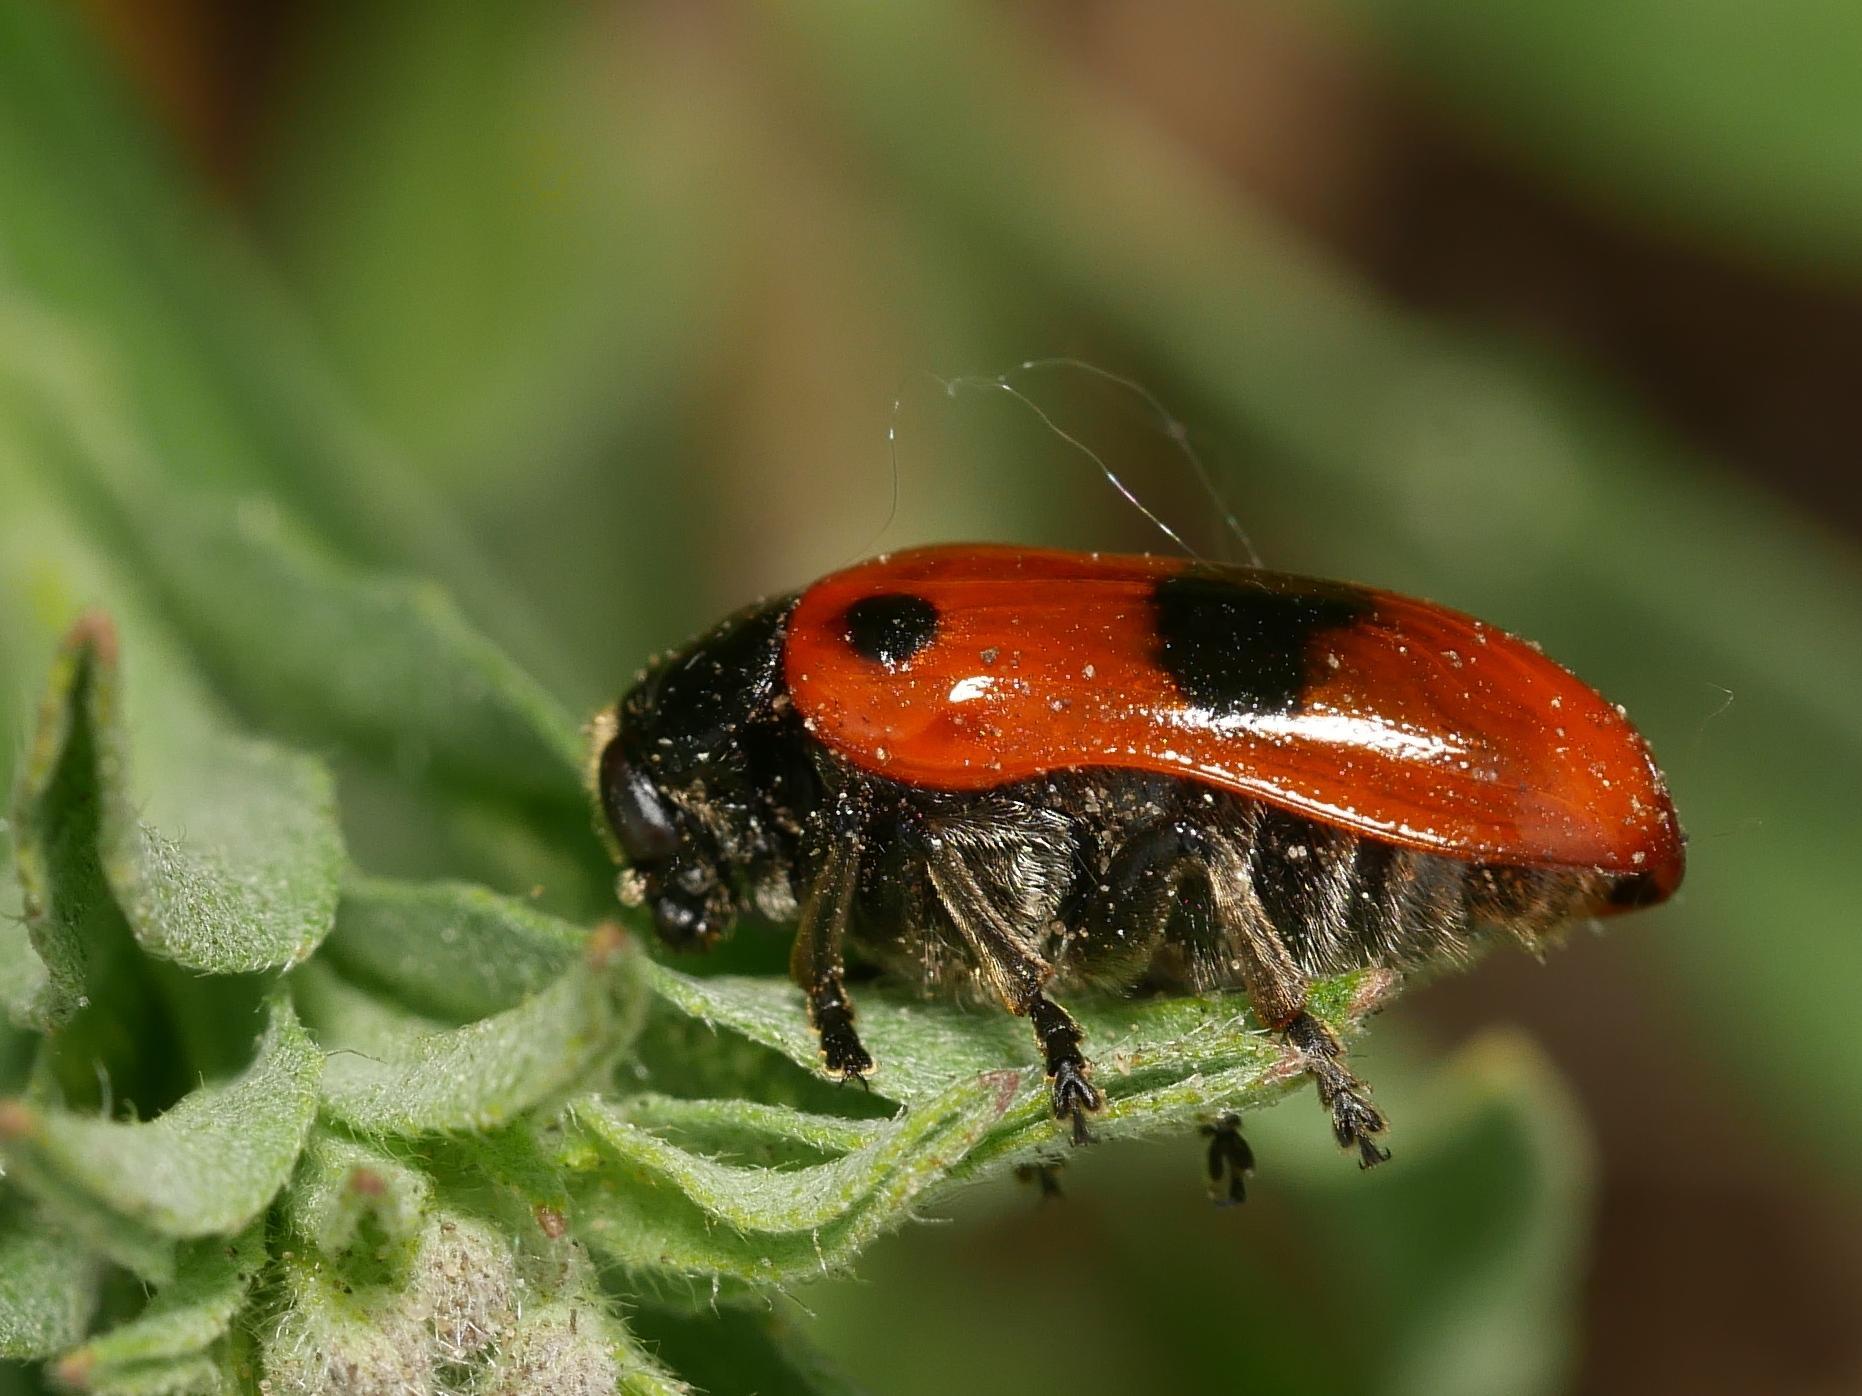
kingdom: Animalia
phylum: Arthropoda
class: Insecta
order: Coleoptera
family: Chrysomelidae
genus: Clytra
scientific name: Clytra laeviuscula
